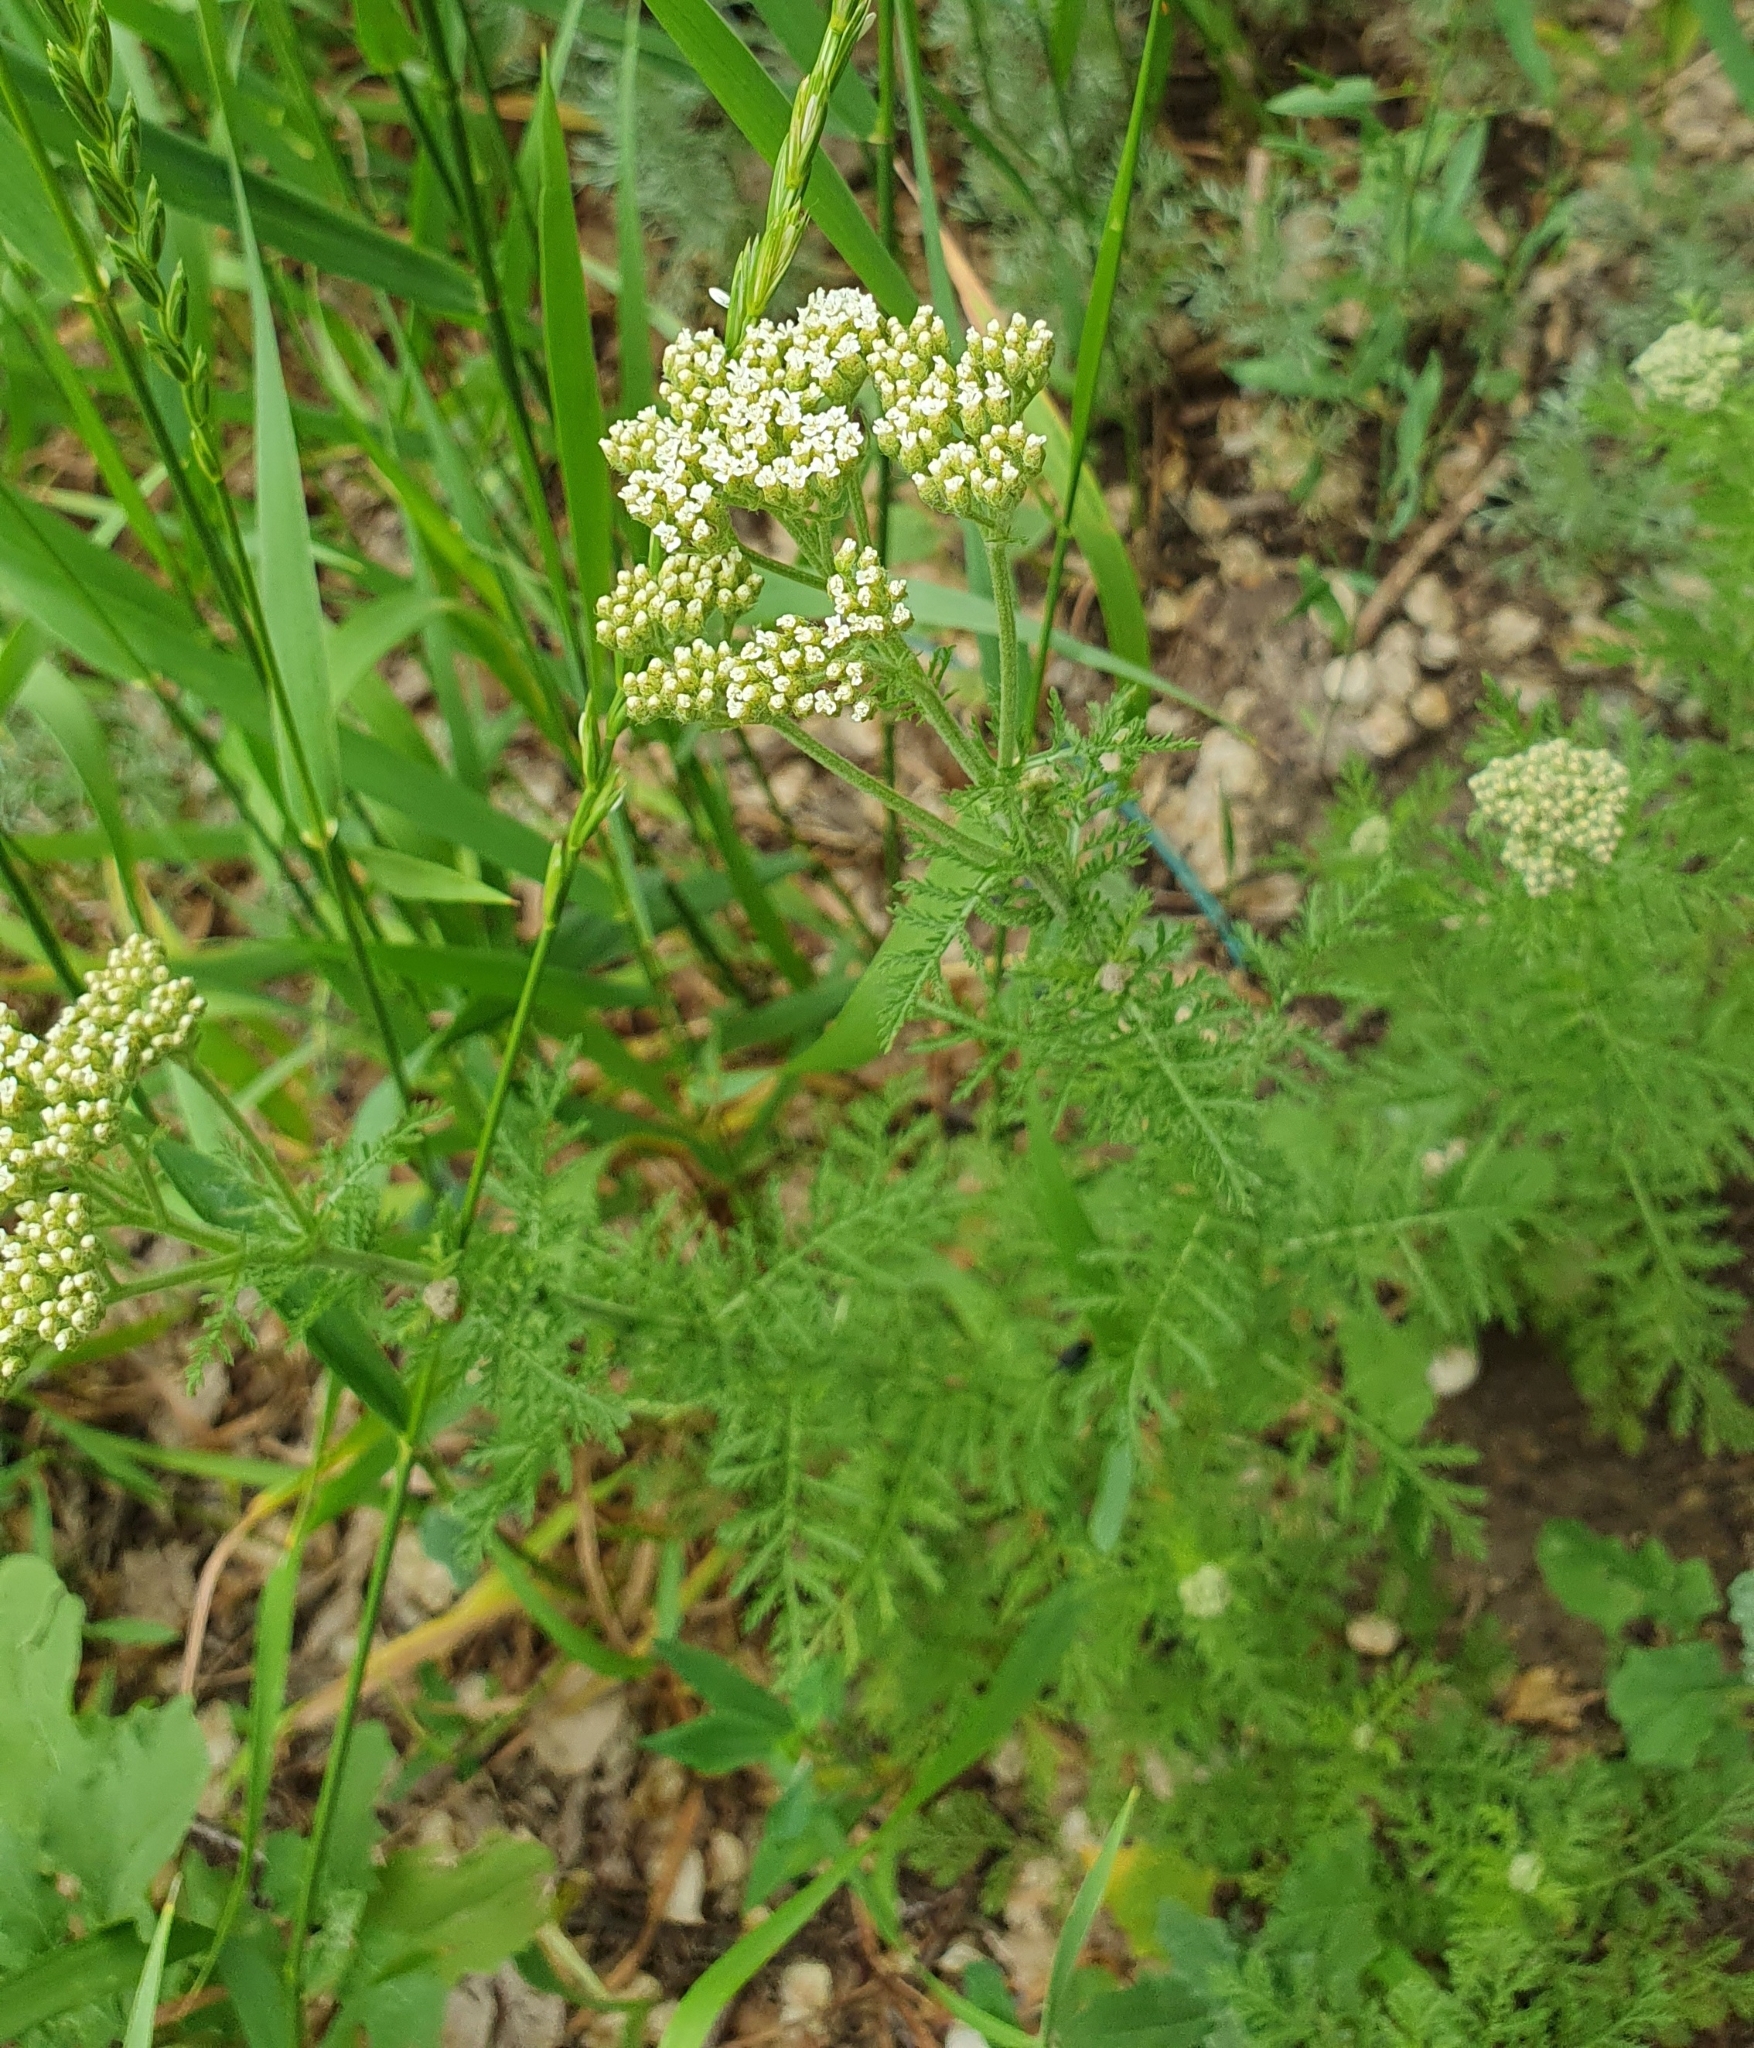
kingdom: Plantae
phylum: Tracheophyta
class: Magnoliopsida
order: Asterales
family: Asteraceae
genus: Achillea
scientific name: Achillea nobilis
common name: Noble yarrow
